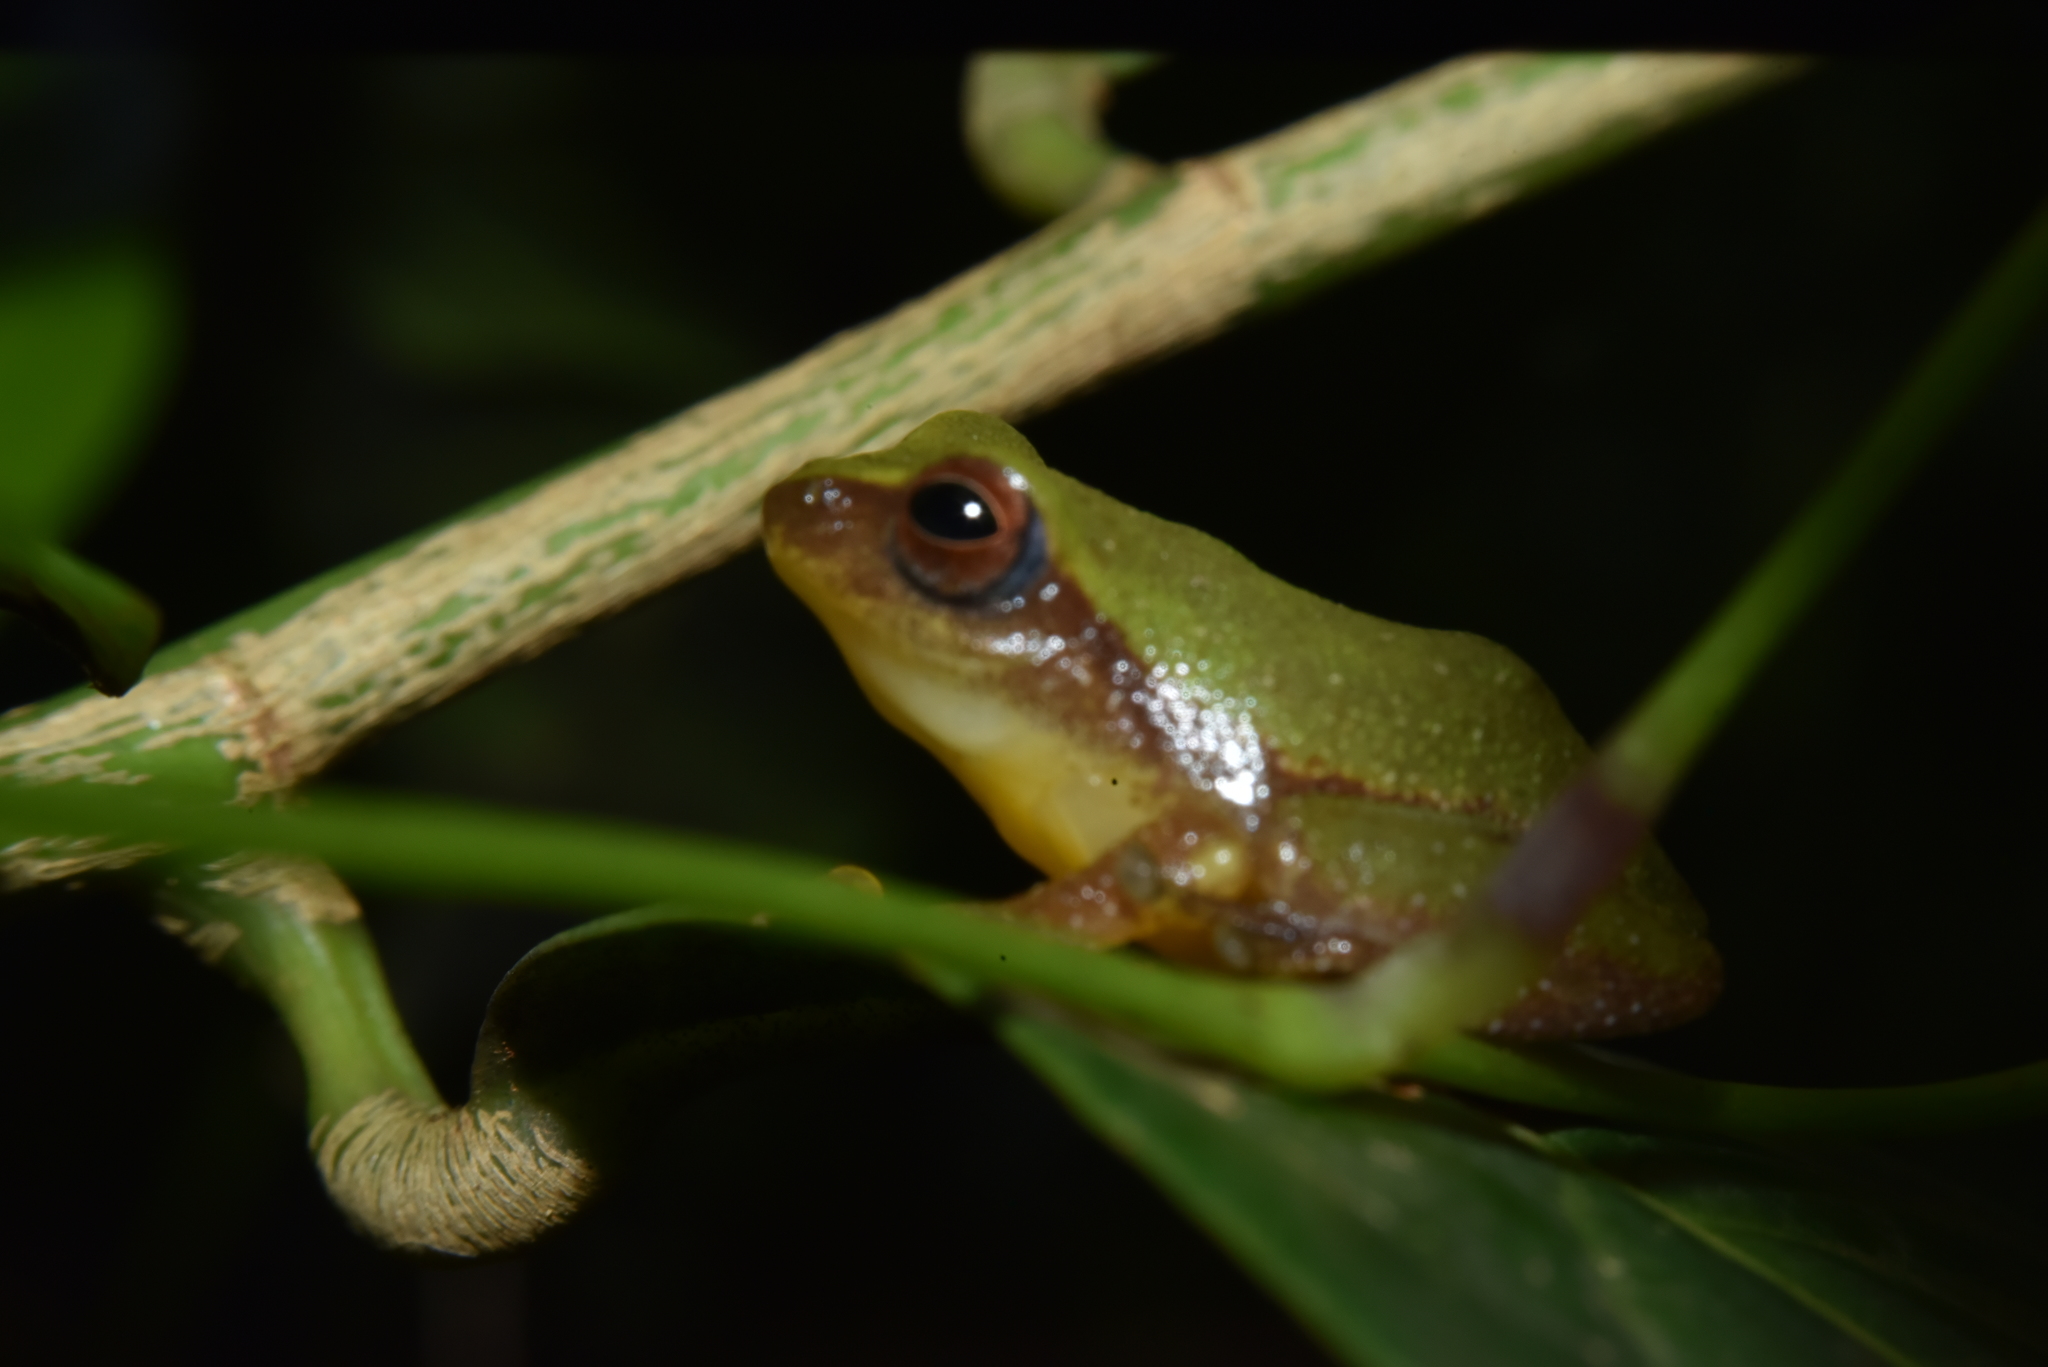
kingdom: Animalia
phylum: Chordata
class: Amphibia
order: Anura
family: Rhacophoridae
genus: Raorchestes
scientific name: Raorchestes akroparallagi
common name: Variable bush frog
